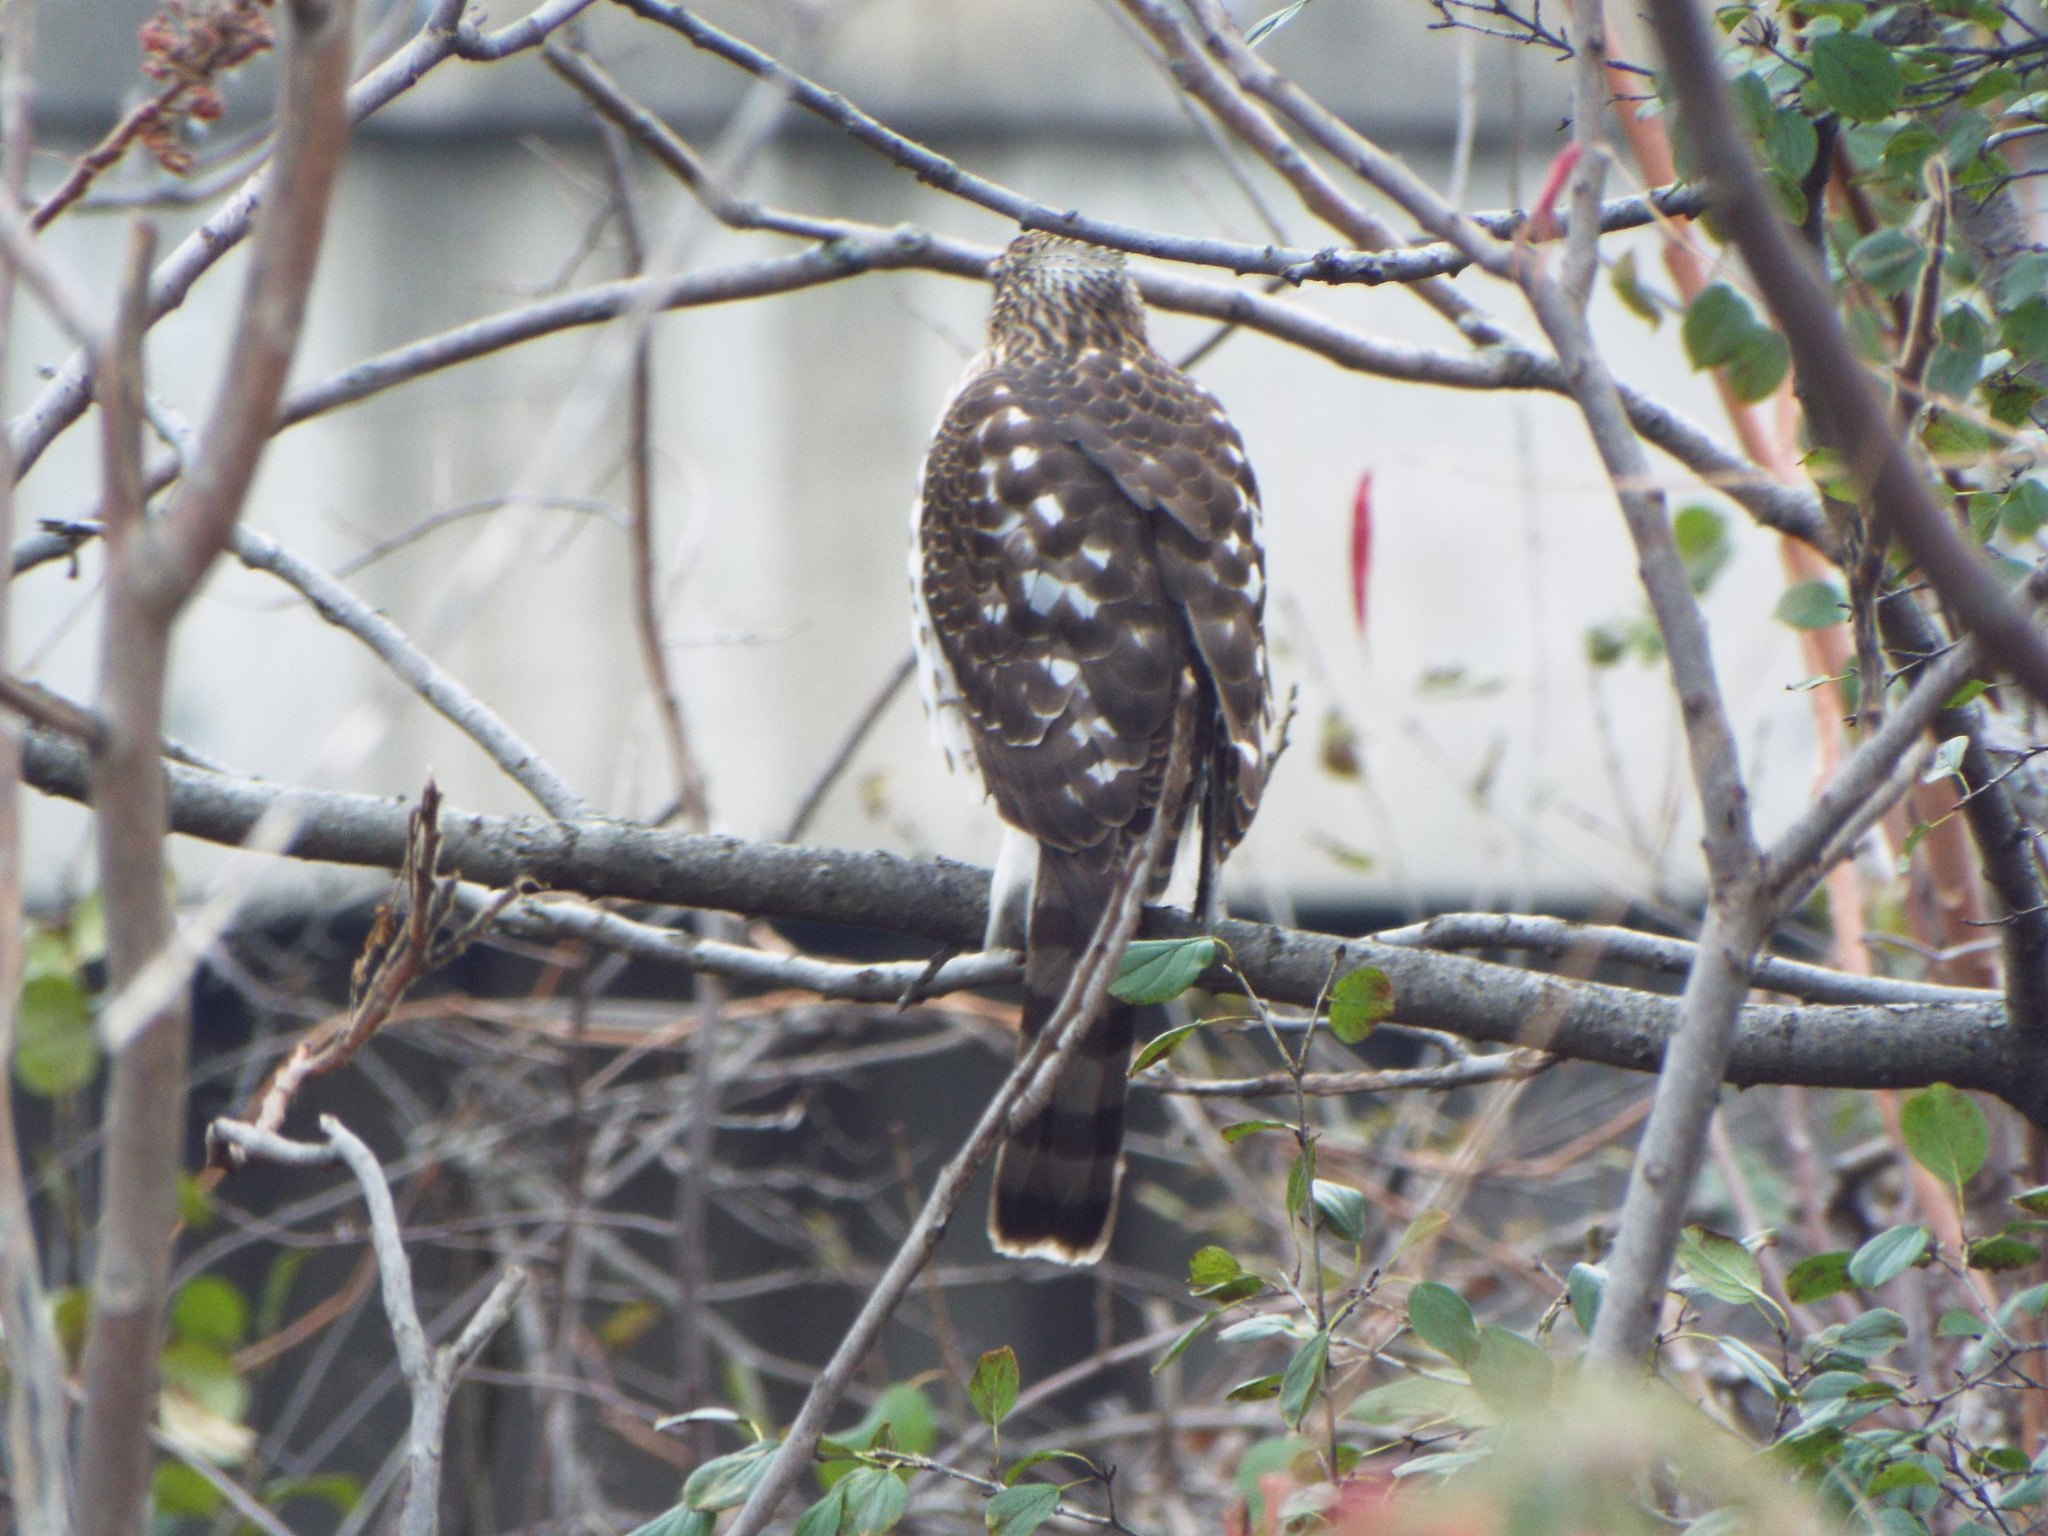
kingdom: Animalia
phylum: Chordata
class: Aves
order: Accipitriformes
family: Accipitridae
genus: Accipiter
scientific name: Accipiter cooperii
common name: Cooper's hawk
